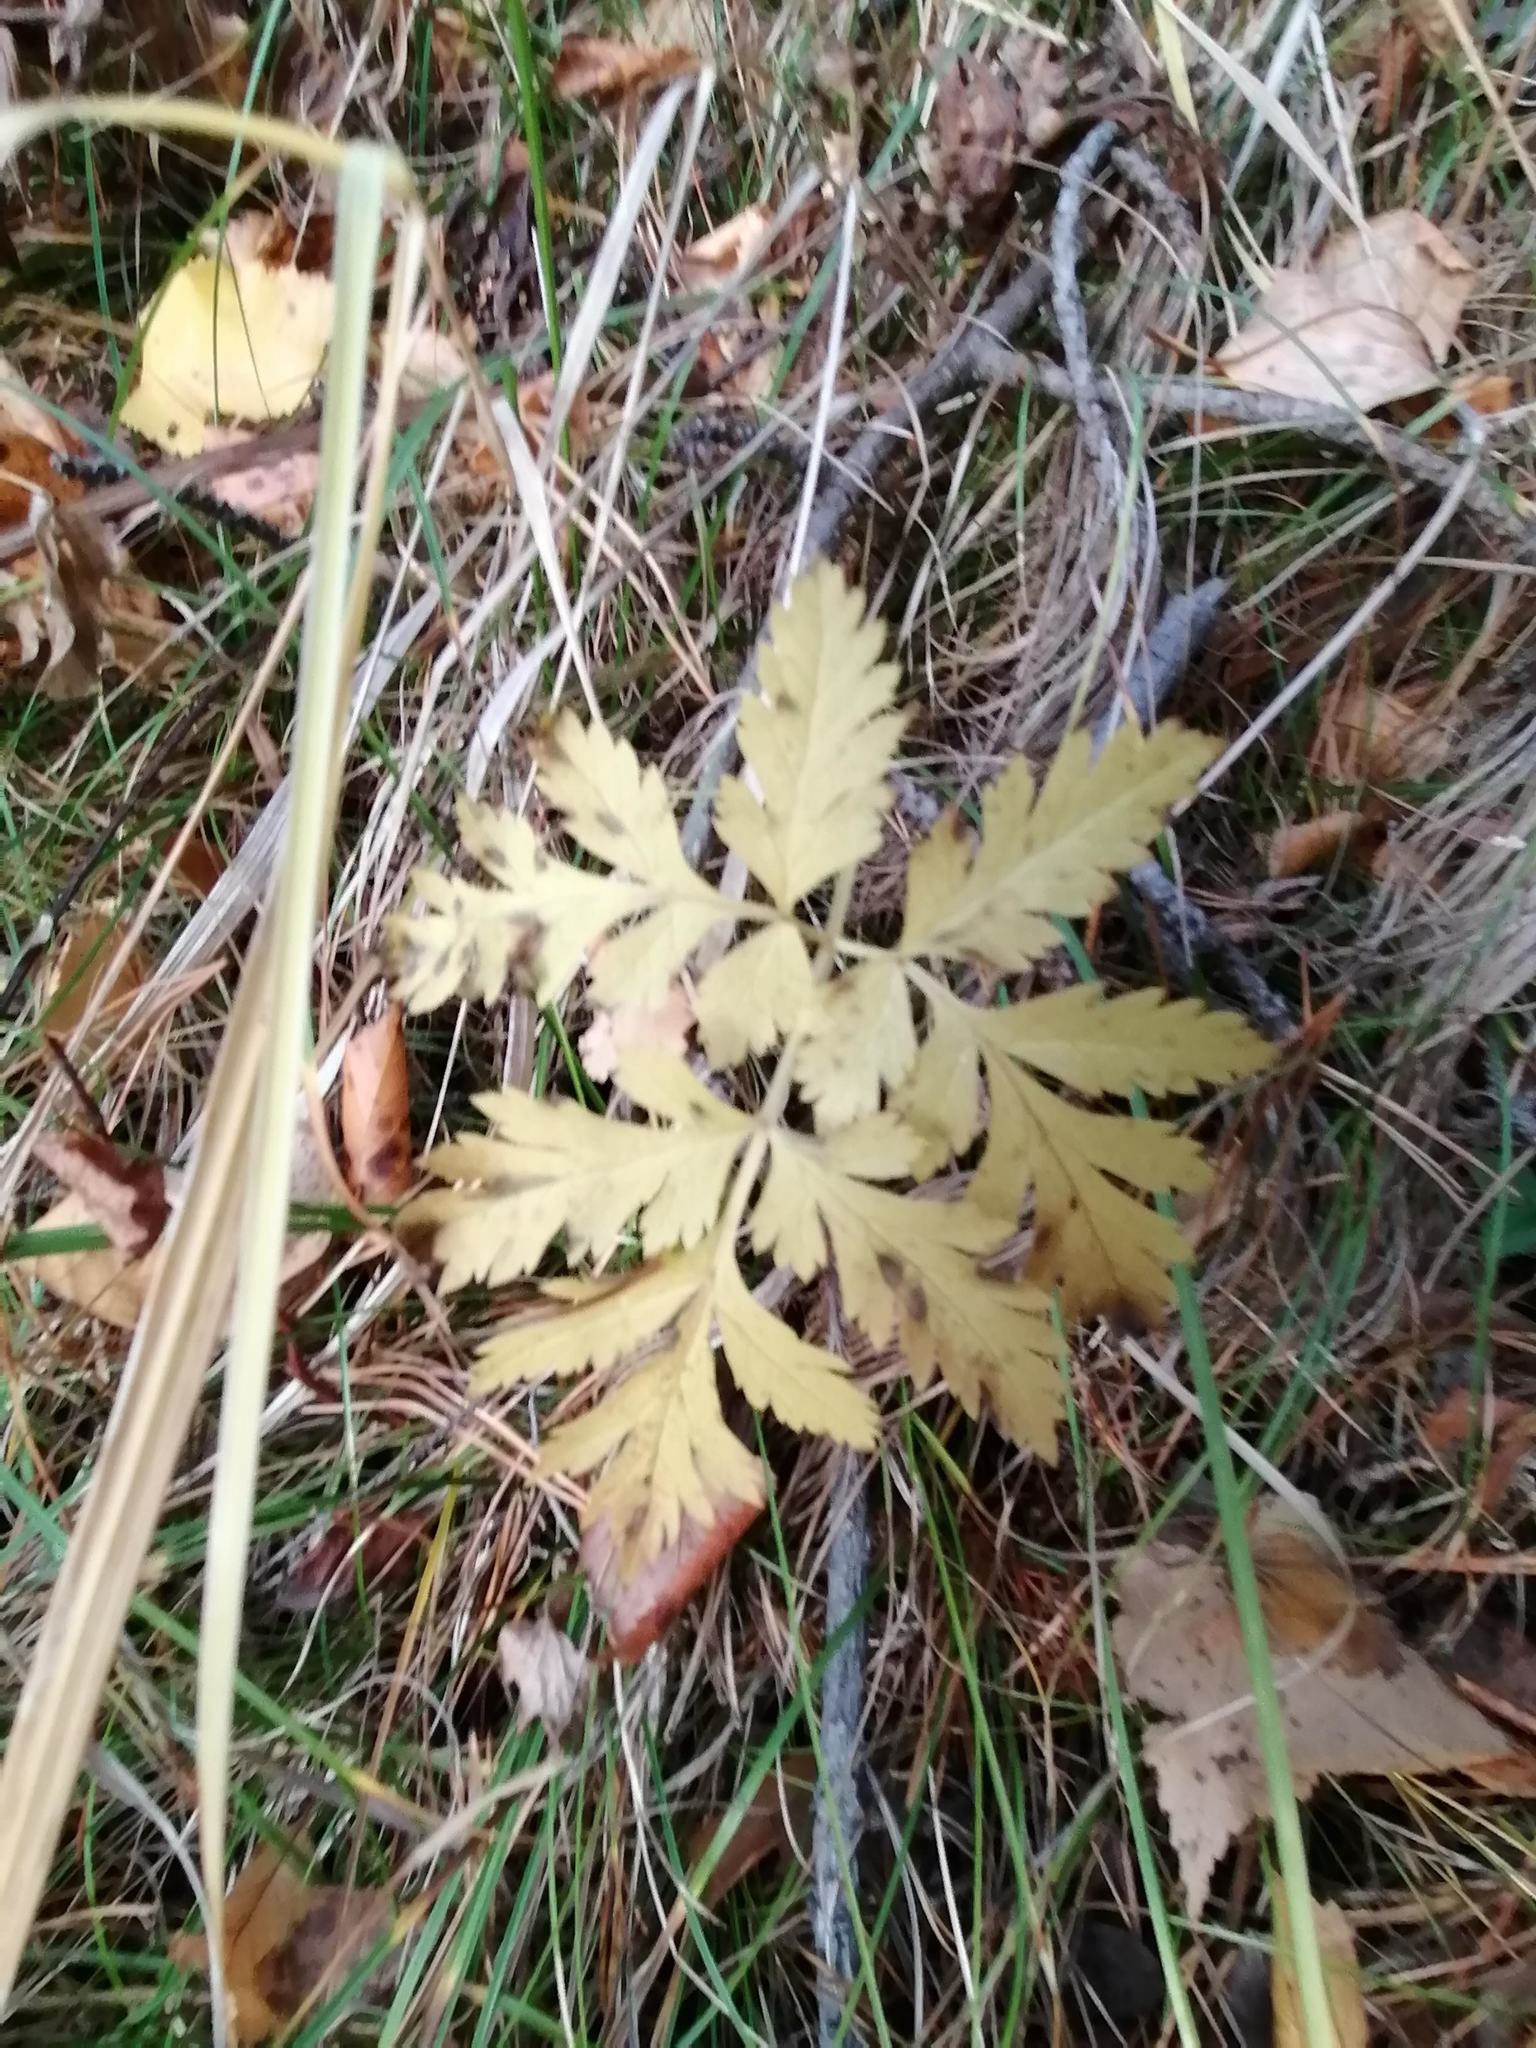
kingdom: Plantae
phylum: Tracheophyta
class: Magnoliopsida
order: Apiales
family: Apiaceae
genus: Pleurospermum
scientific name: Pleurospermum uralense
